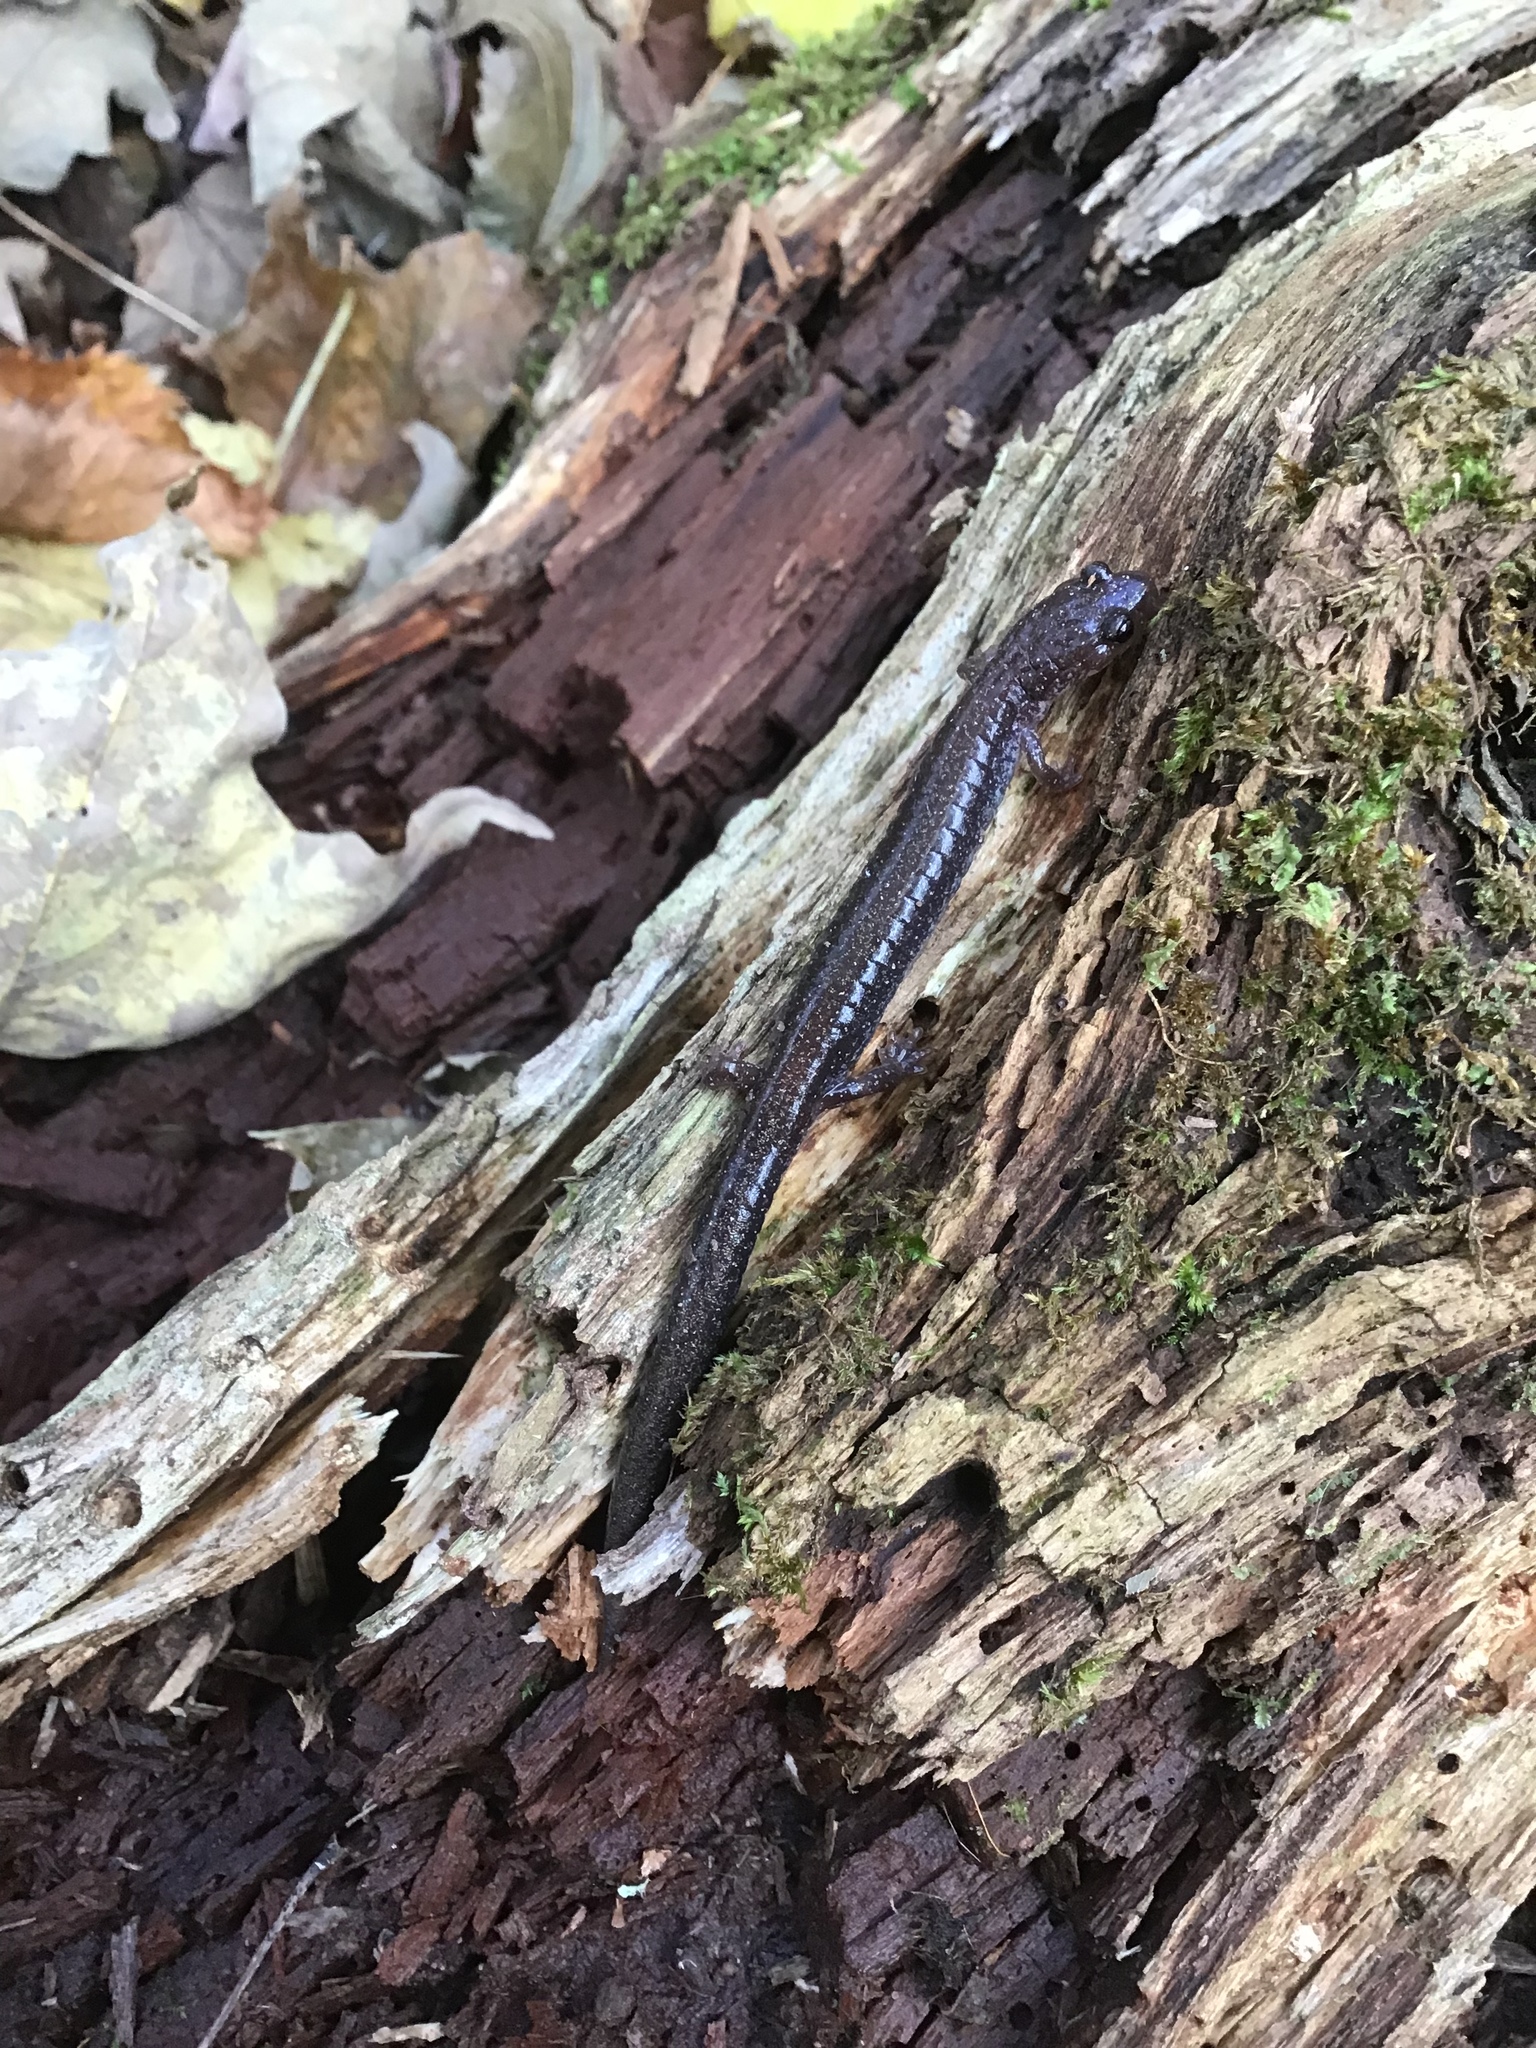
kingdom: Animalia
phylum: Chordata
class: Amphibia
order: Caudata
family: Plethodontidae
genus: Plethodon
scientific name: Plethodon cinereus
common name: Redback salamander
